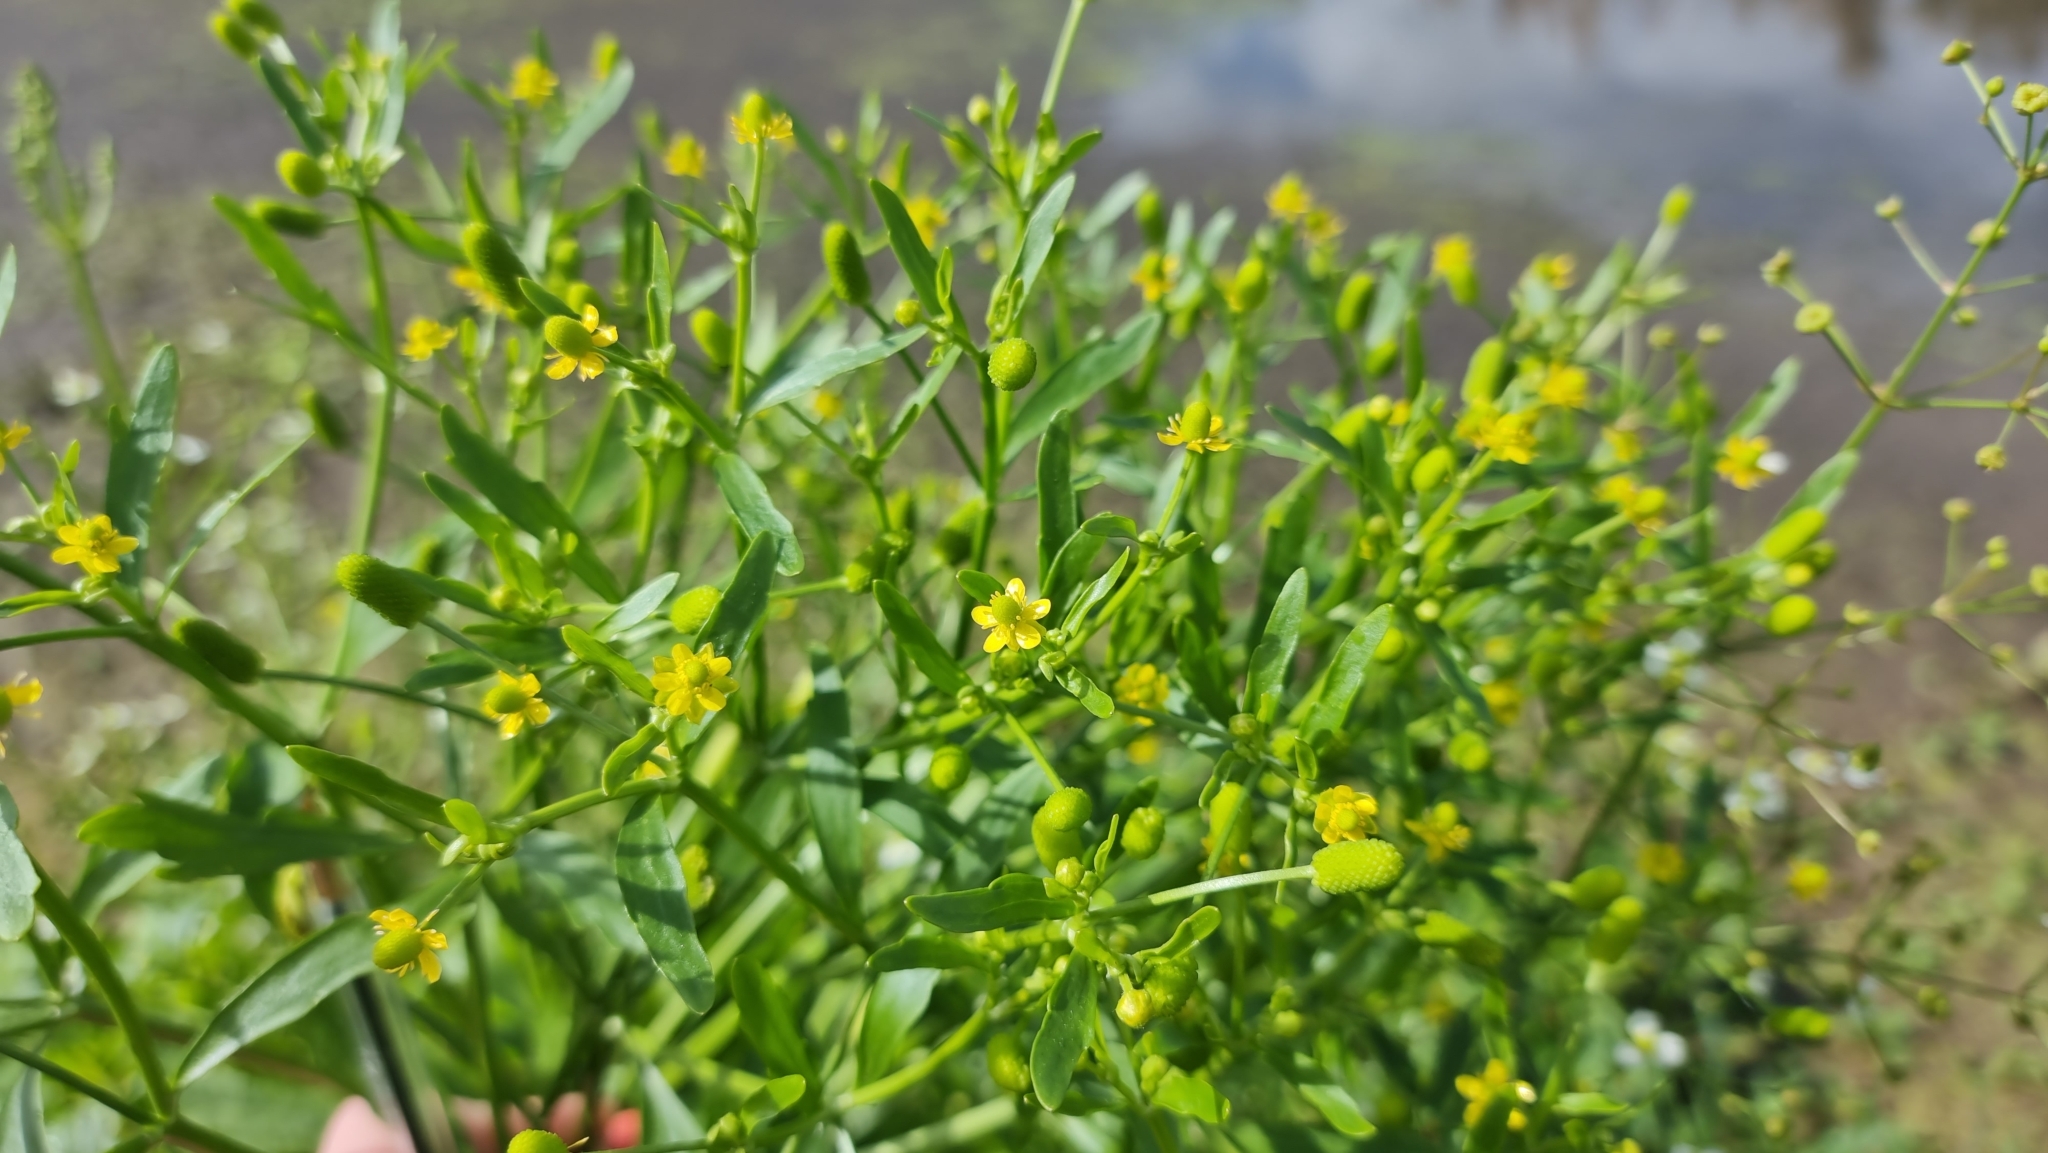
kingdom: Plantae
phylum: Tracheophyta
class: Magnoliopsida
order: Ranunculales
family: Ranunculaceae
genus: Ranunculus
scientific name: Ranunculus sceleratus
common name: Celery-leaved buttercup
